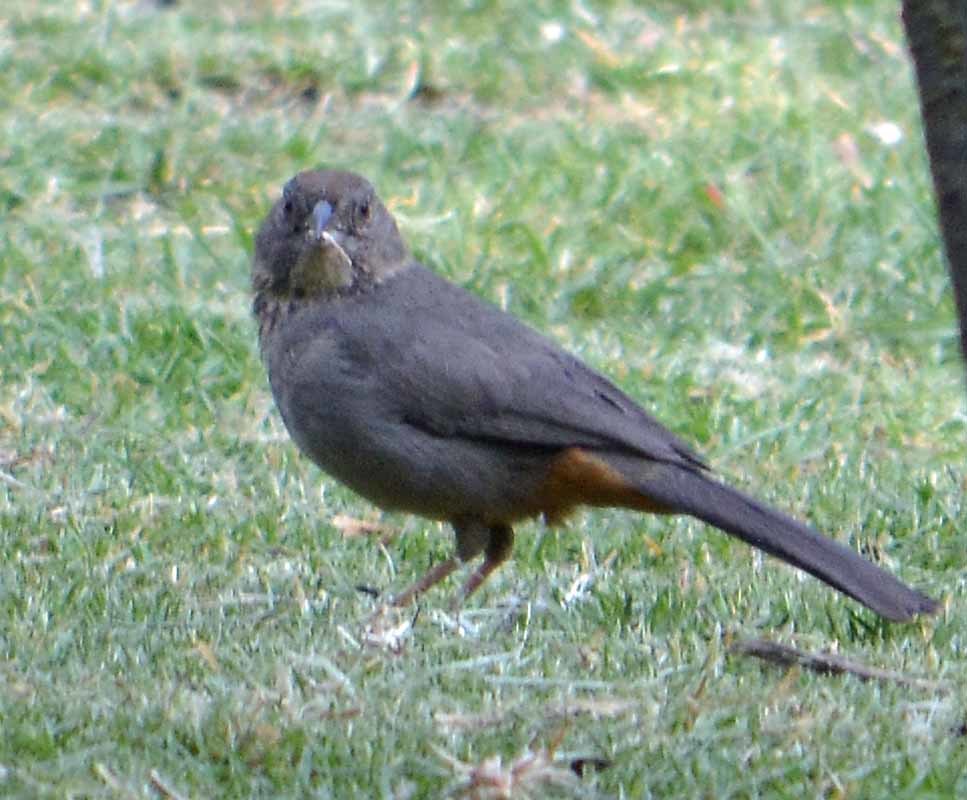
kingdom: Animalia
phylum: Chordata
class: Aves
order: Passeriformes
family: Passerellidae
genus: Melozone
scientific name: Melozone fusca
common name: Canyon towhee
